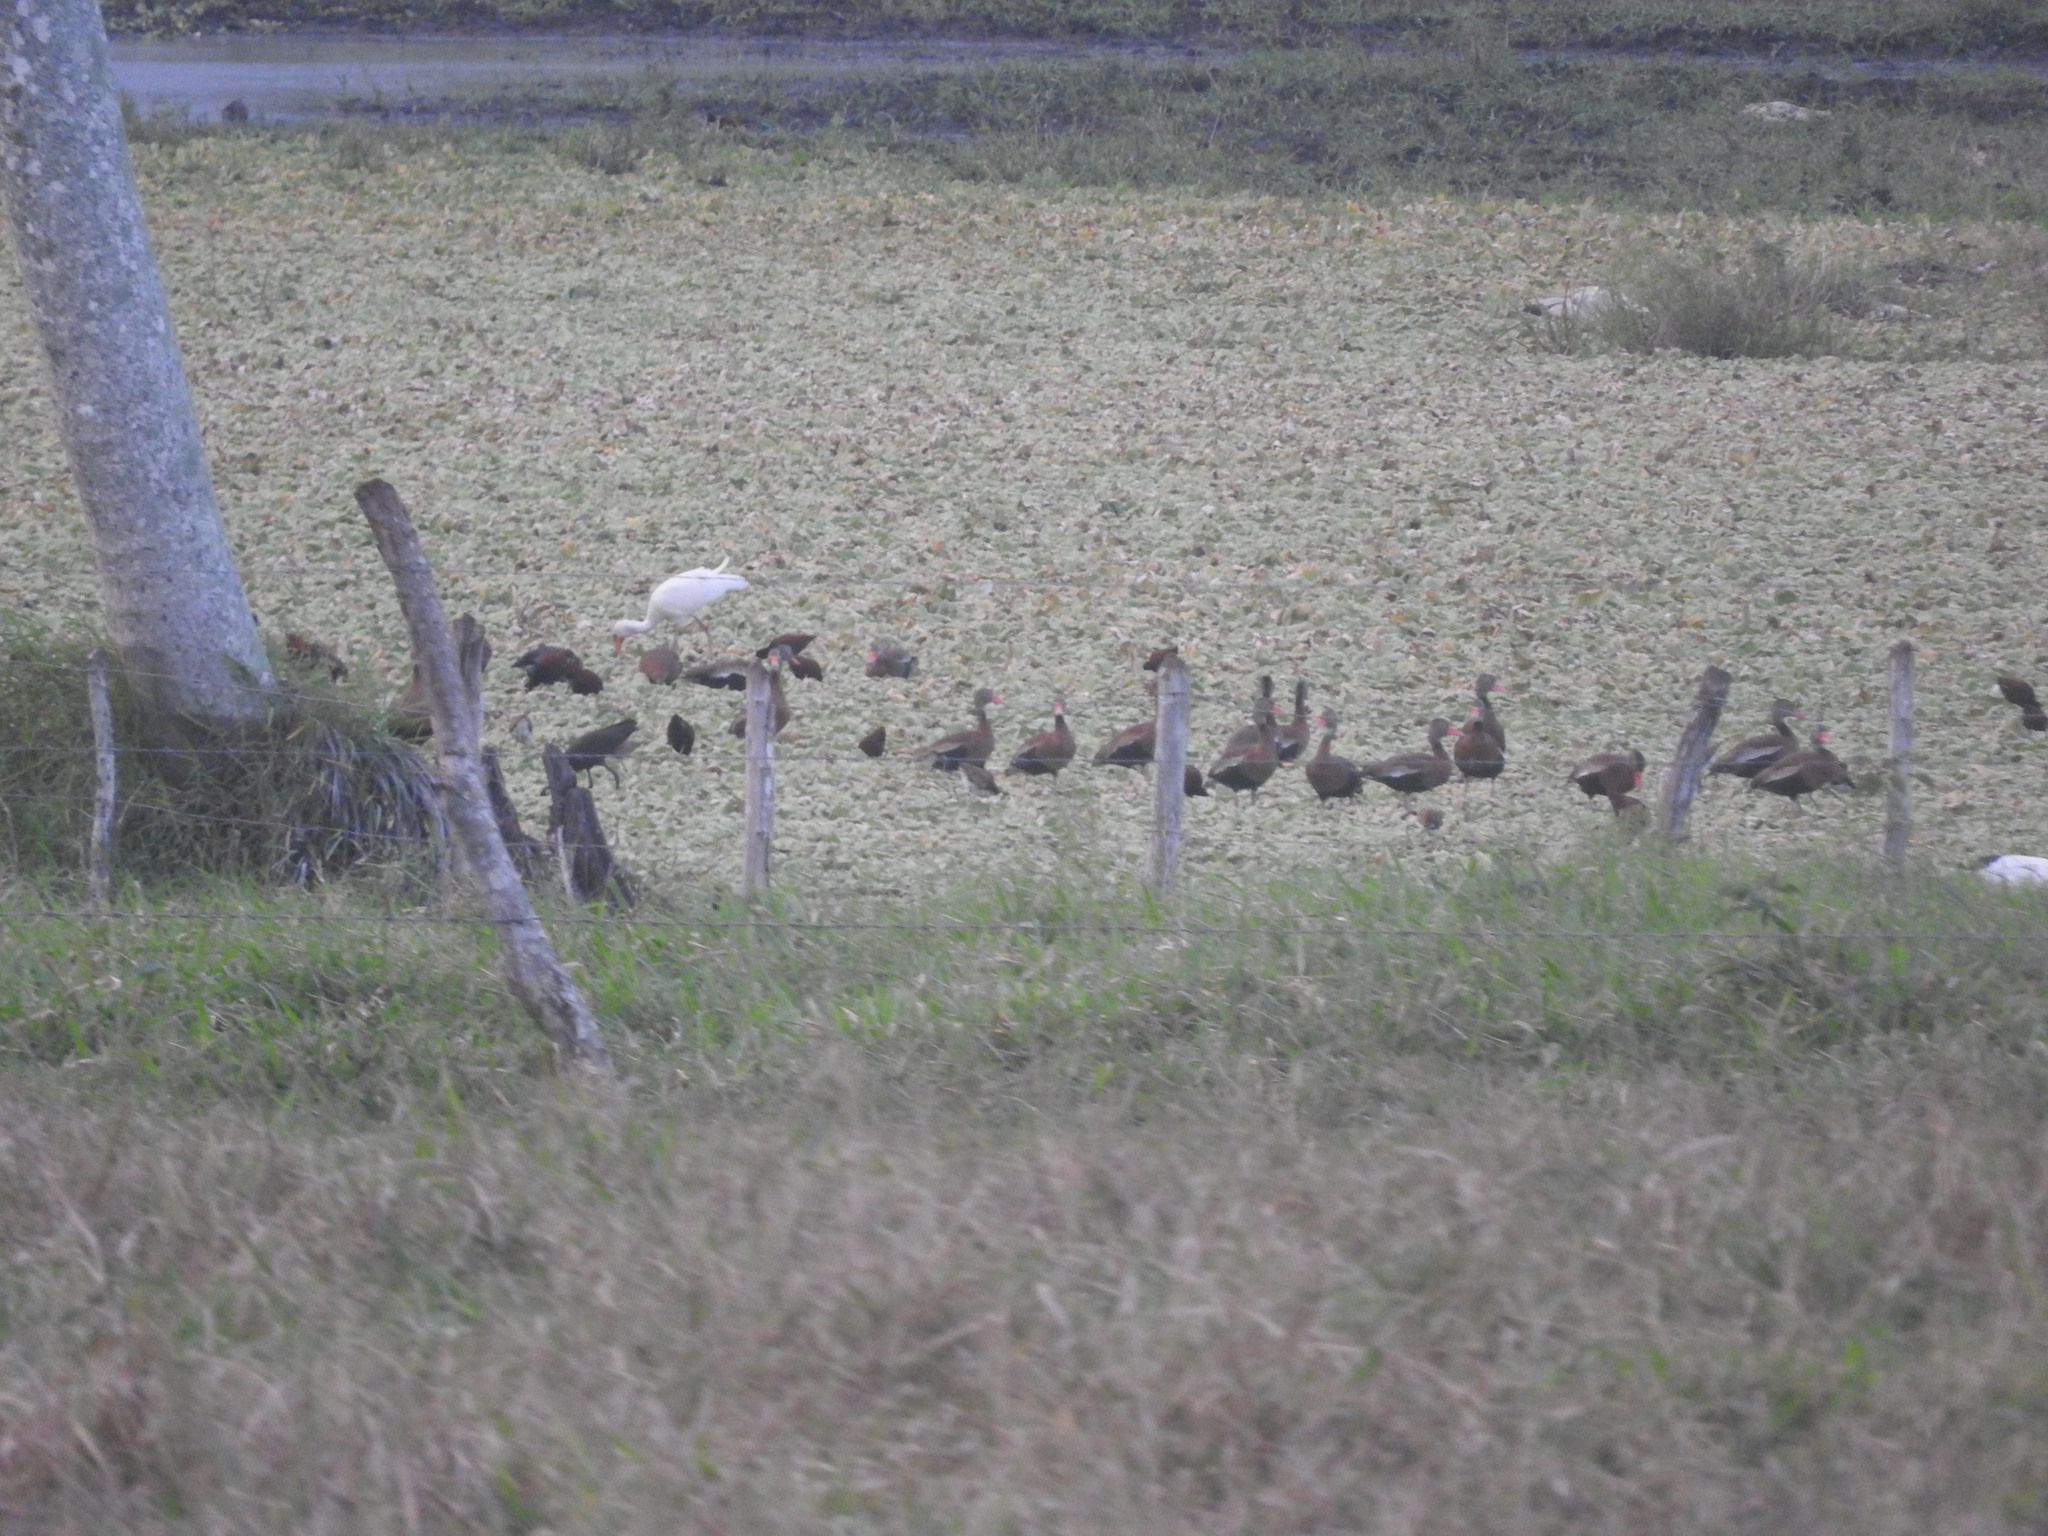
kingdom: Animalia
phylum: Chordata
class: Aves
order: Pelecaniformes
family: Threskiornithidae
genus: Eudocimus
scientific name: Eudocimus albus
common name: White ibis
